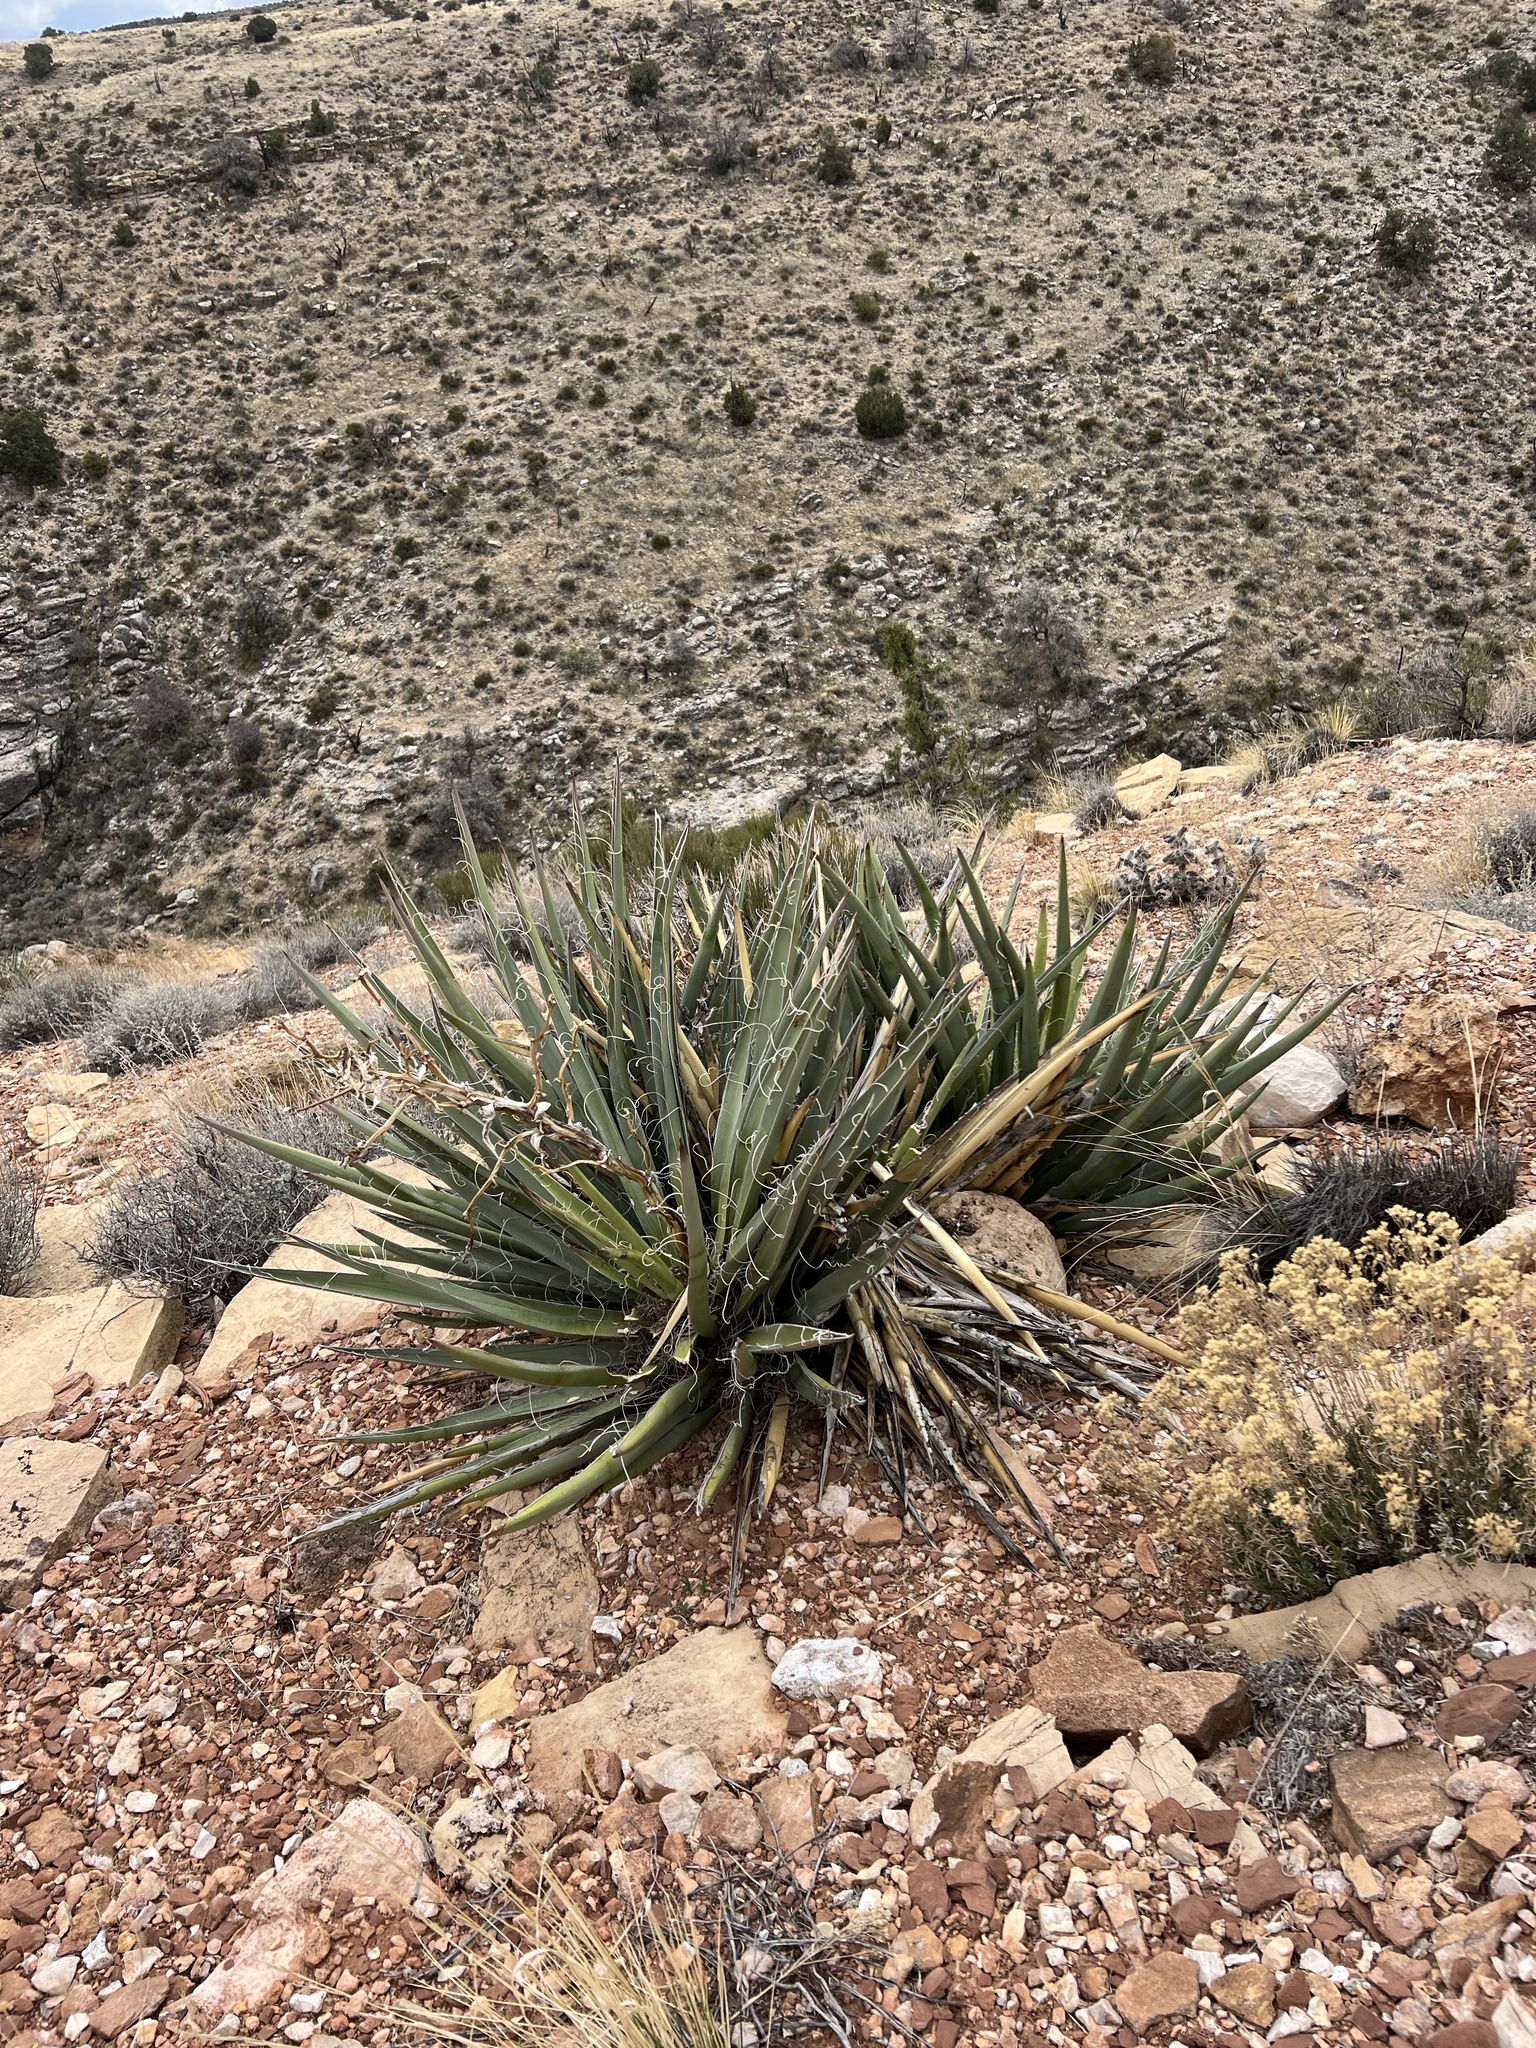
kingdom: Plantae
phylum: Tracheophyta
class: Liliopsida
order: Asparagales
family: Asparagaceae
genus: Yucca
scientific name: Yucca baccata
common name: Banana yucca
